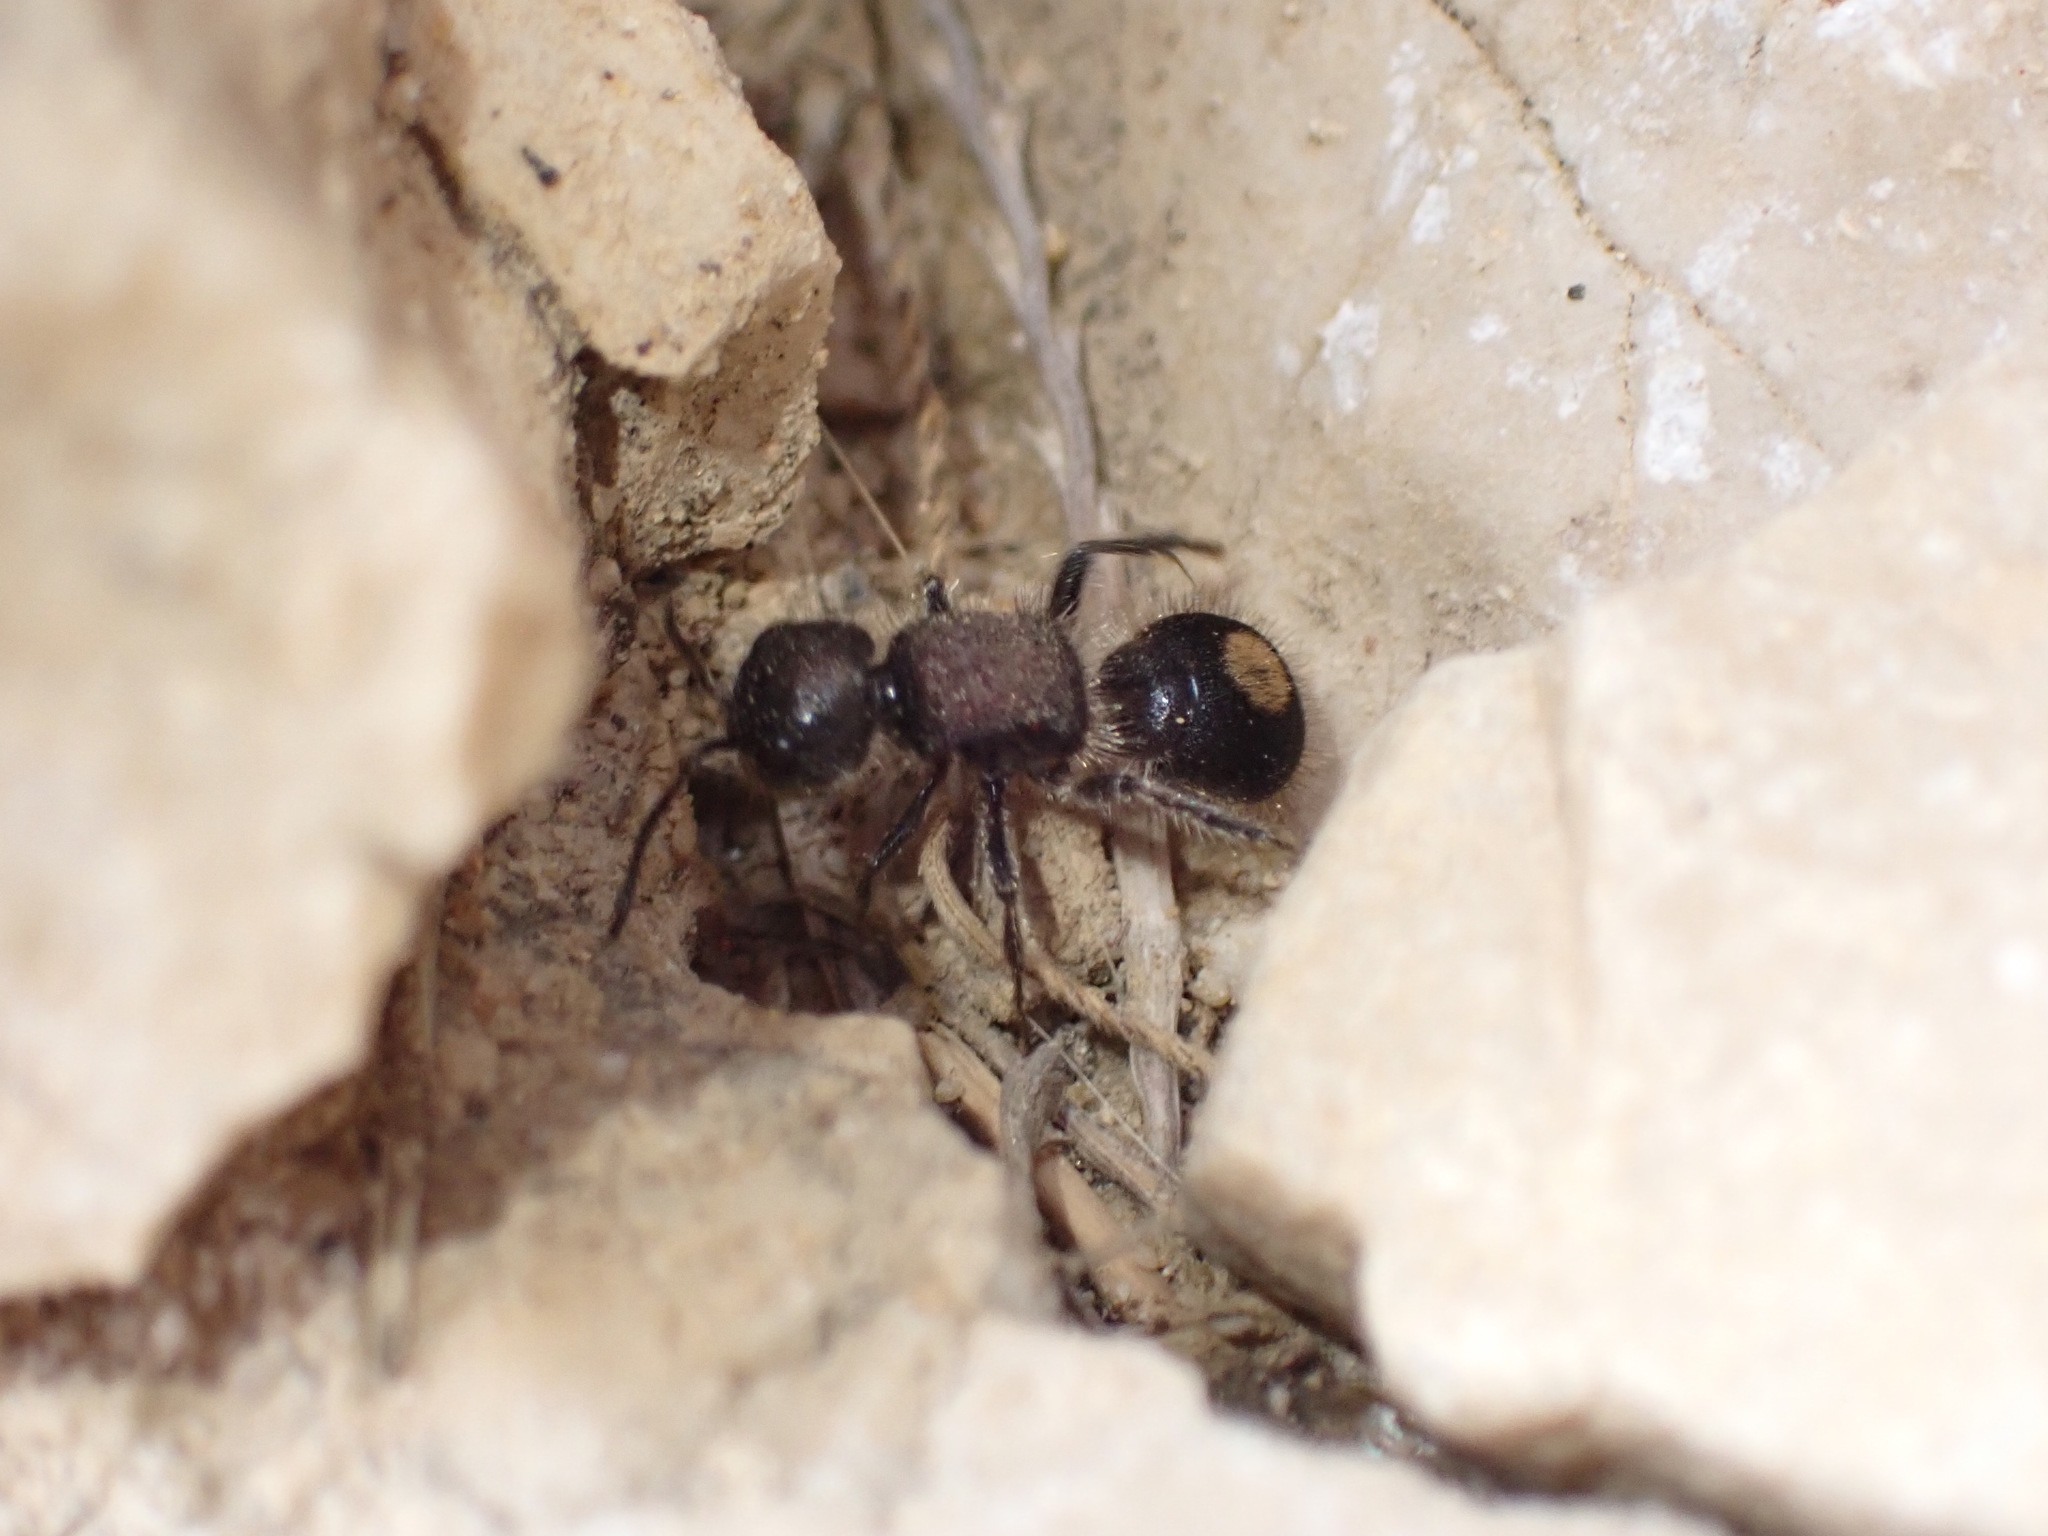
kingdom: Animalia
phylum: Arthropoda
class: Insecta
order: Hymenoptera
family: Mutillidae
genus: Sigilla
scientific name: Sigilla dorsata
